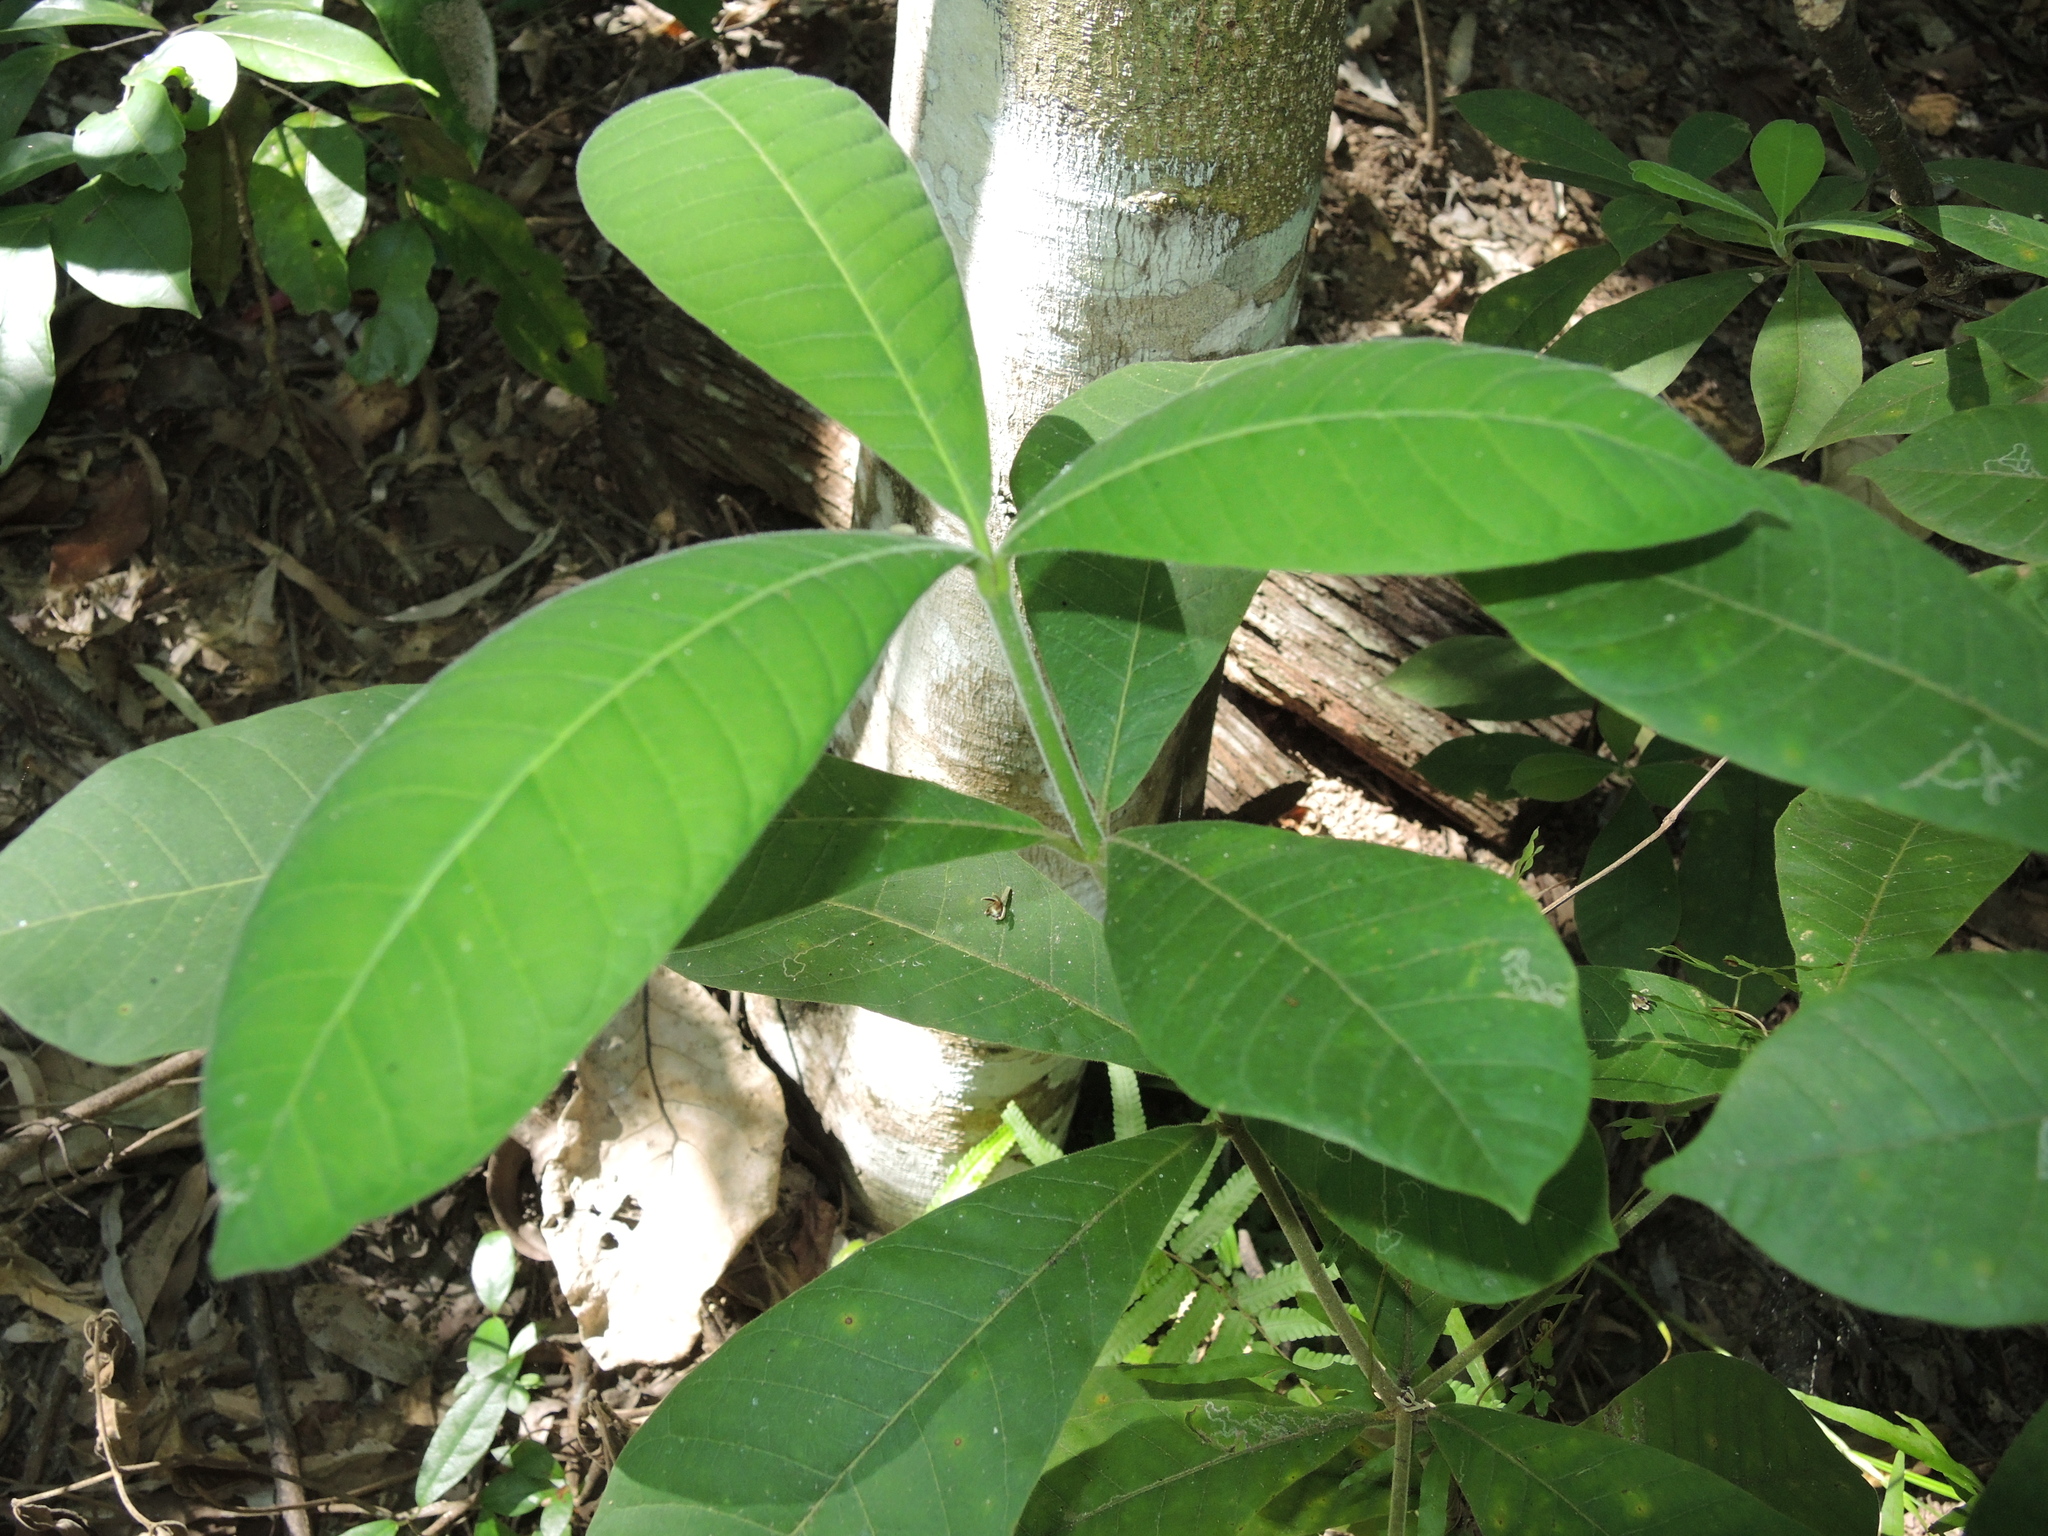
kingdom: Plantae
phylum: Tracheophyta
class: Magnoliopsida
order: Gentianales
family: Apocynaceae
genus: Alstonia
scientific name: Alstonia muelleriana
